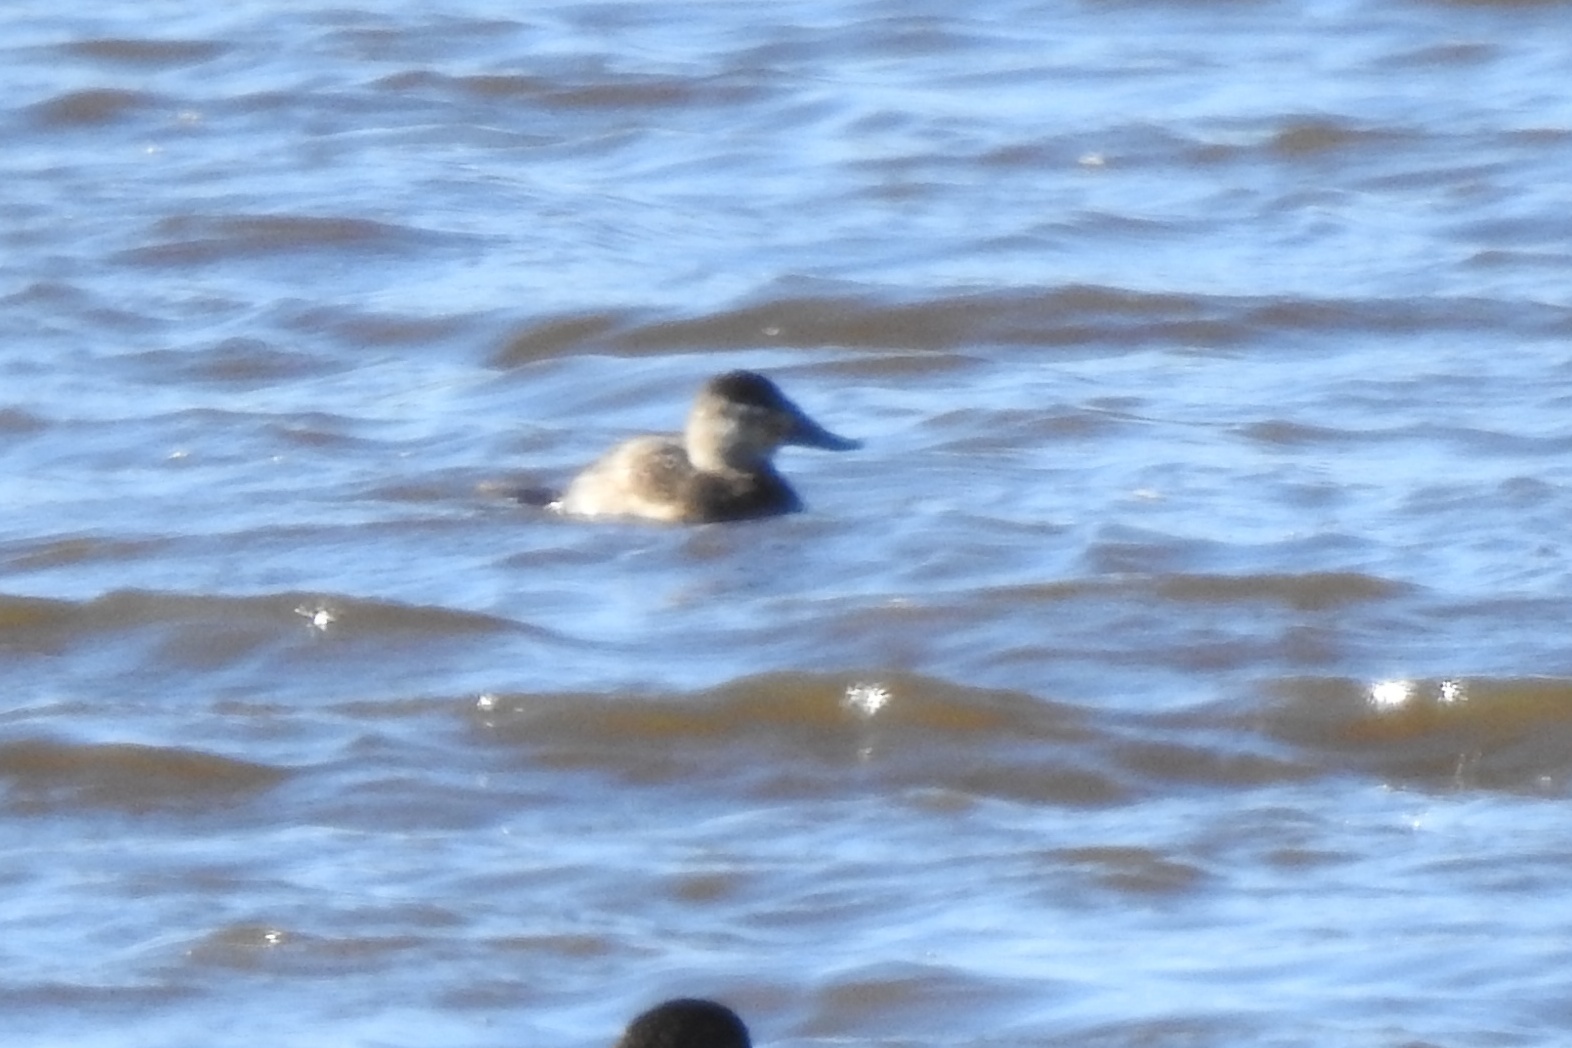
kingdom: Animalia
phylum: Chordata
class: Aves
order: Anseriformes
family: Anatidae
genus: Oxyura
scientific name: Oxyura jamaicensis
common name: Ruddy duck
